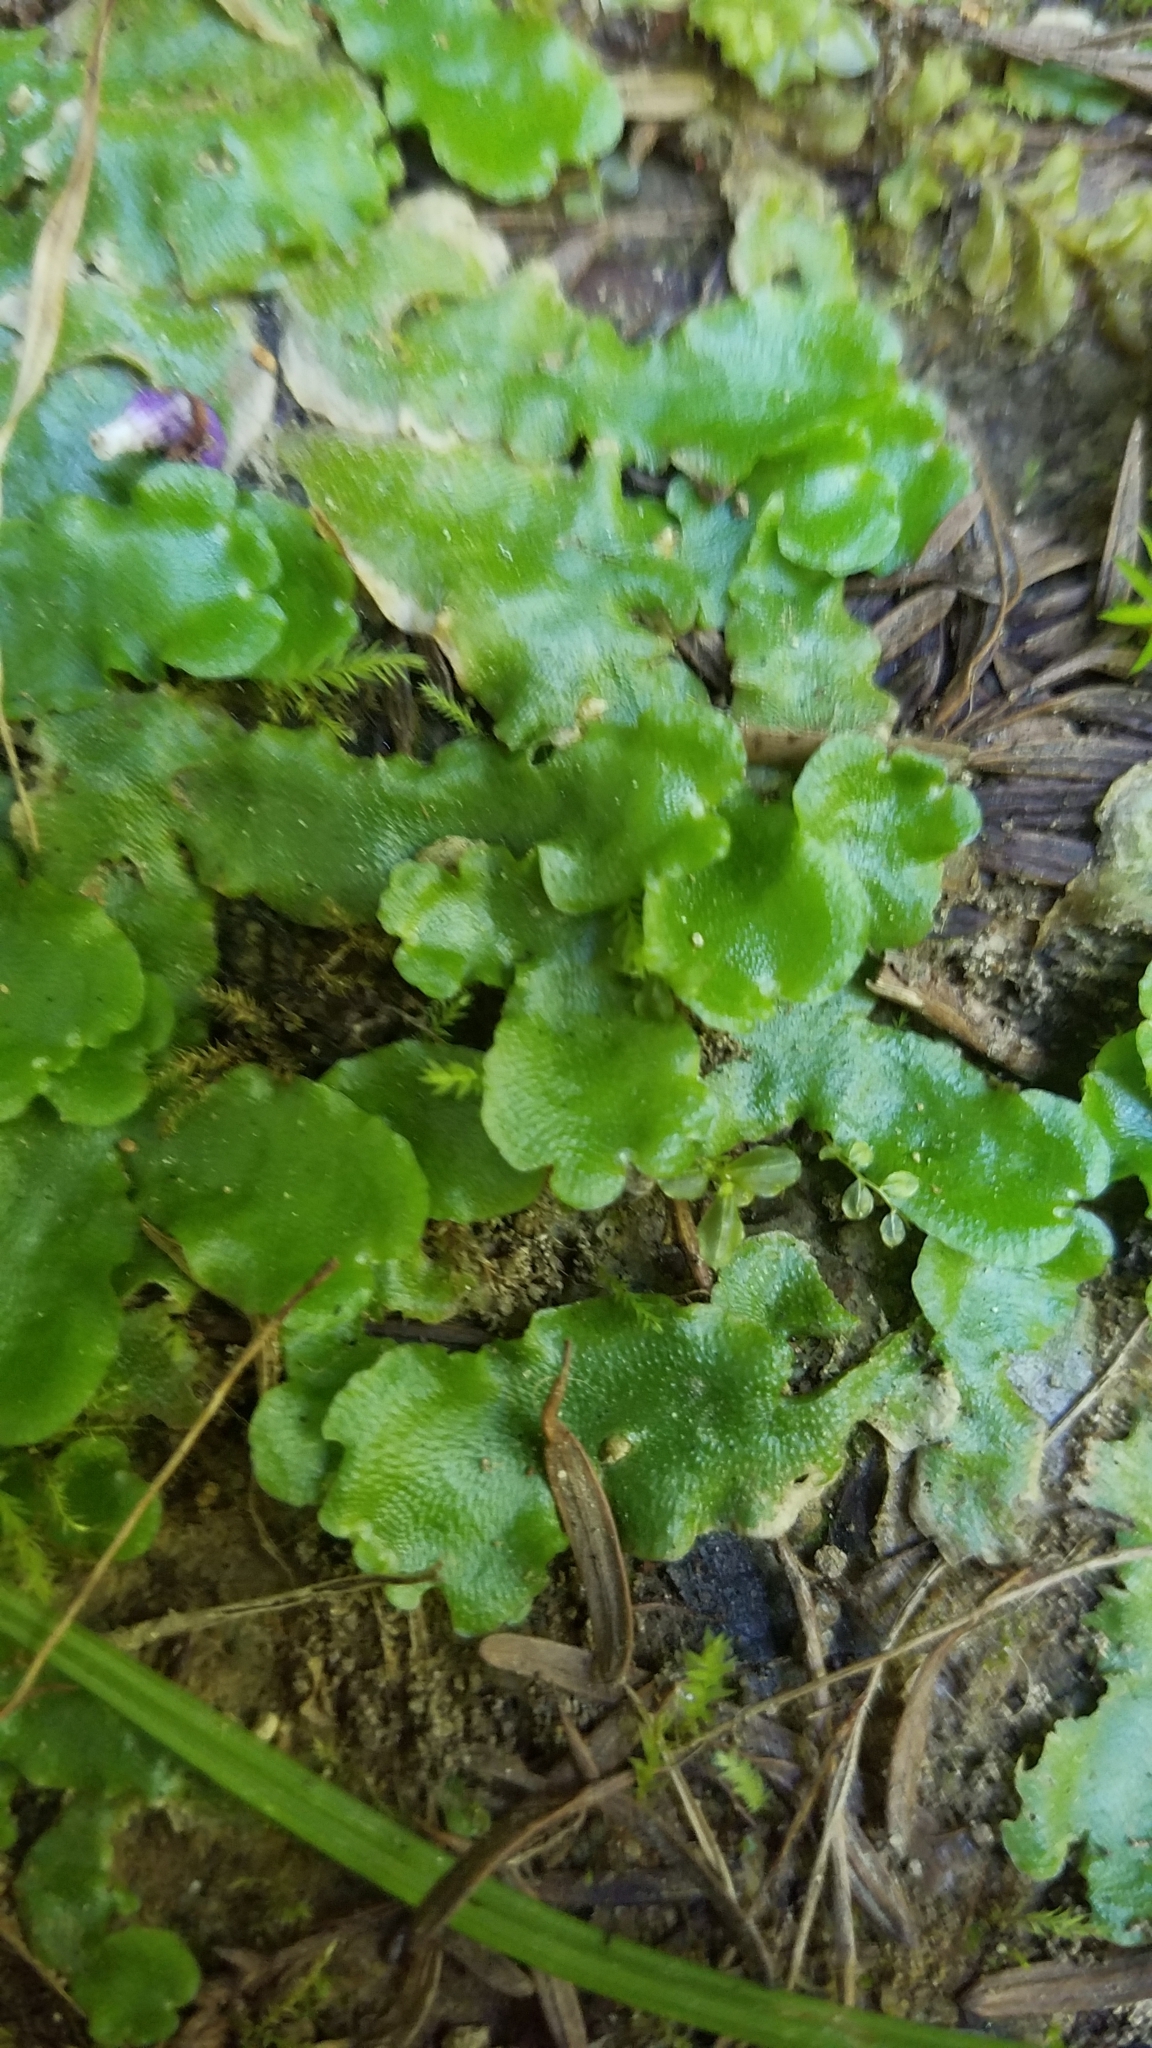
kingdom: Plantae
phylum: Marchantiophyta
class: Marchantiopsida
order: Lunulariales
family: Lunulariaceae
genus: Lunularia
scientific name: Lunularia cruciata
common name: Crescent-cup liverwort
